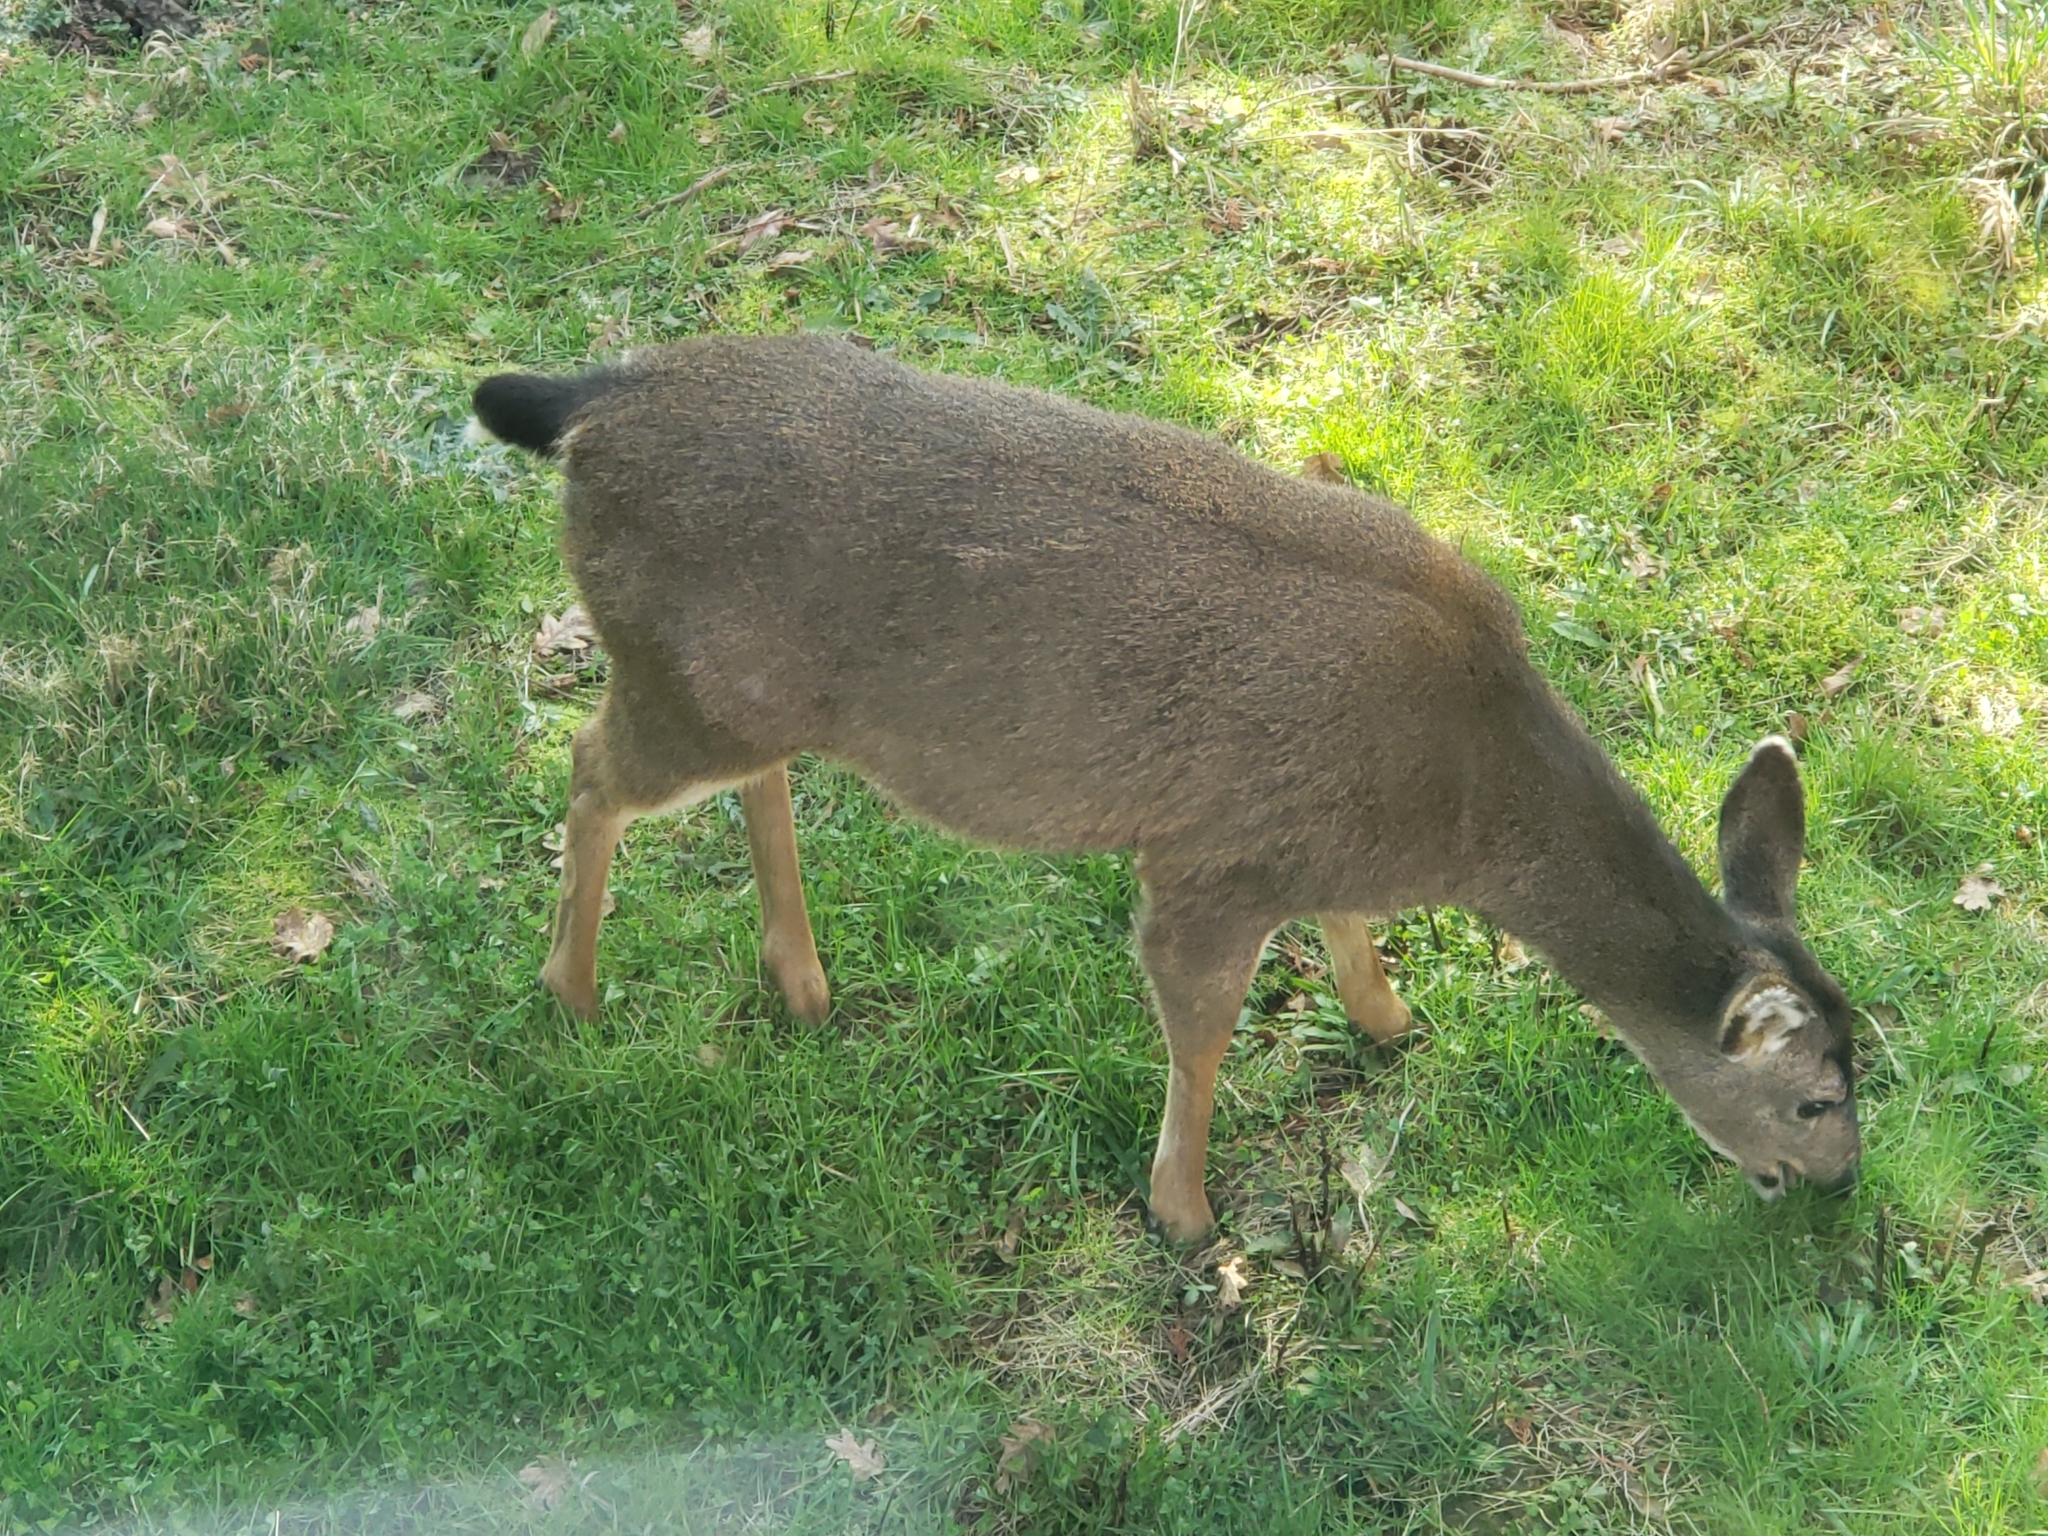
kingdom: Animalia
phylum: Chordata
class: Mammalia
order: Artiodactyla
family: Cervidae
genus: Odocoileus
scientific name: Odocoileus hemionus
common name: Mule deer
